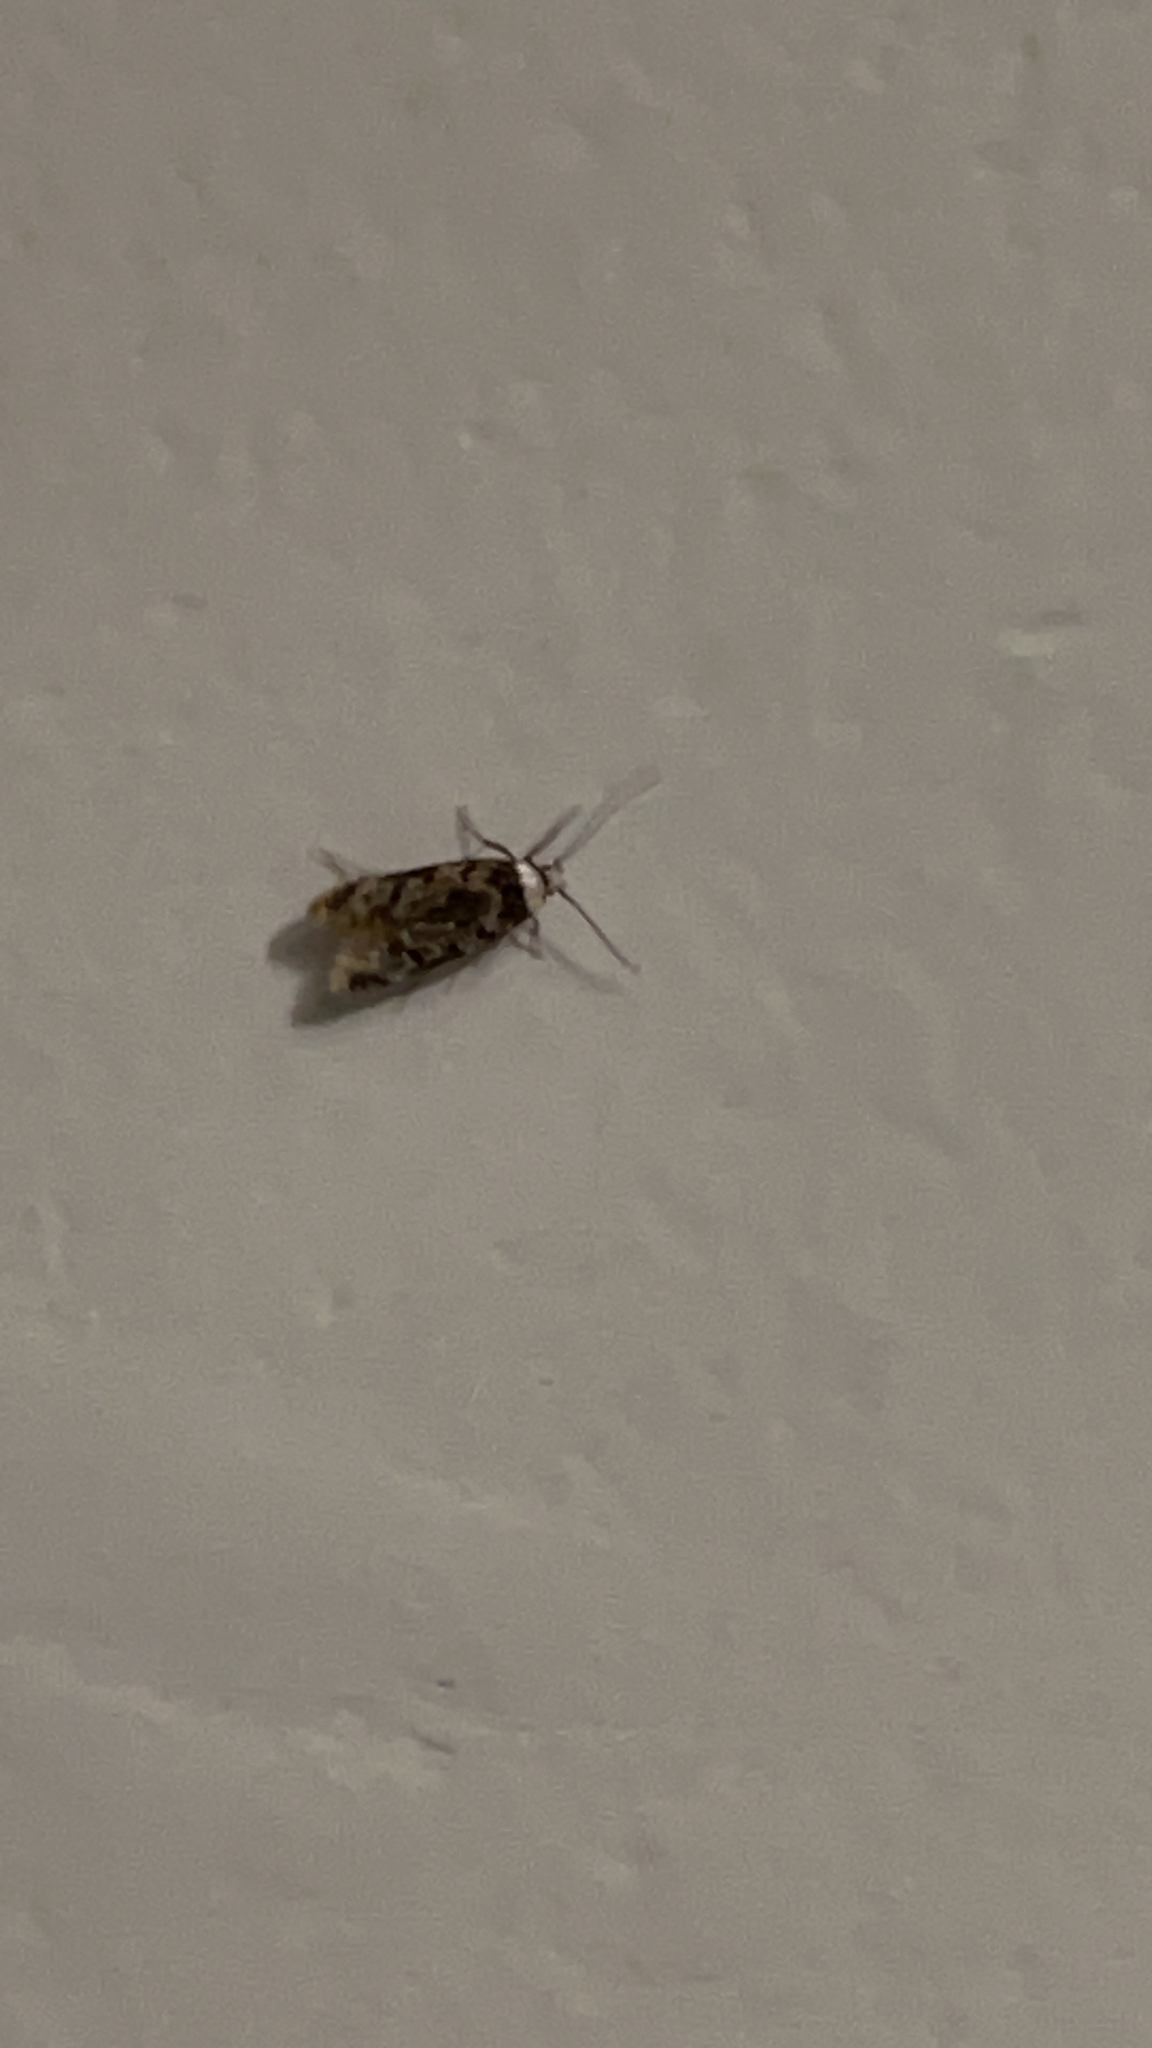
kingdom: Animalia
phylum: Arthropoda
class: Insecta
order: Lepidoptera
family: Oecophoridae
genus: Endrosis
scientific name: Endrosis sarcitrella
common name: White-shouldered house moth
